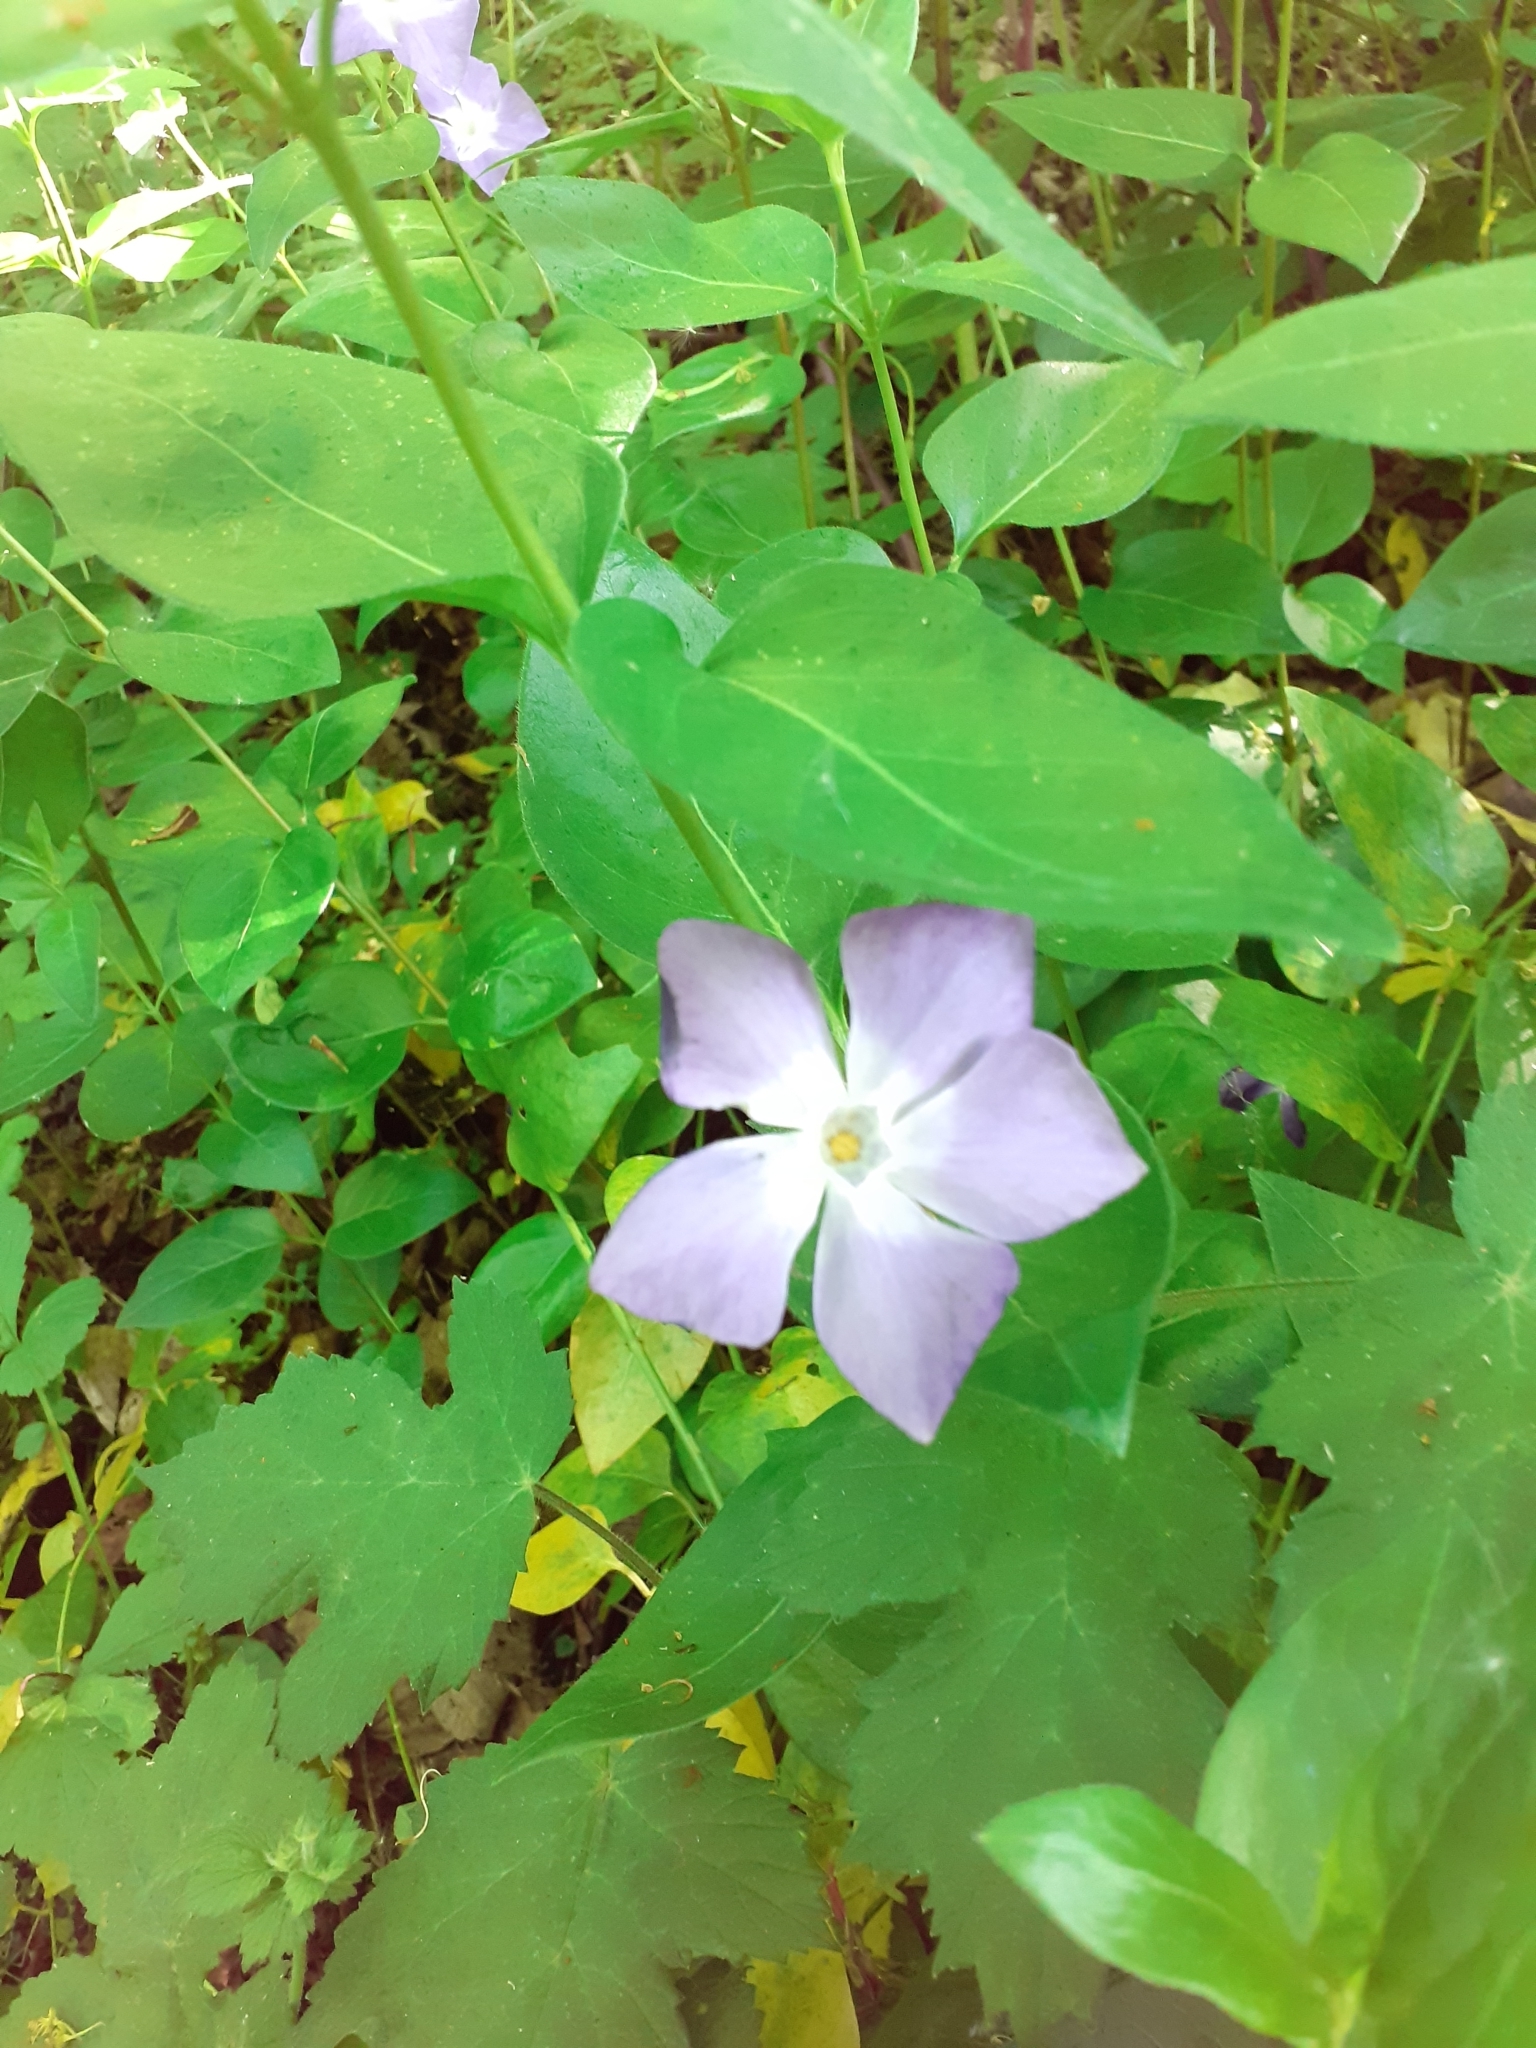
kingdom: Plantae
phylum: Tracheophyta
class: Magnoliopsida
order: Gentianales
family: Apocynaceae
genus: Vinca
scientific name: Vinca major
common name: Greater periwinkle
